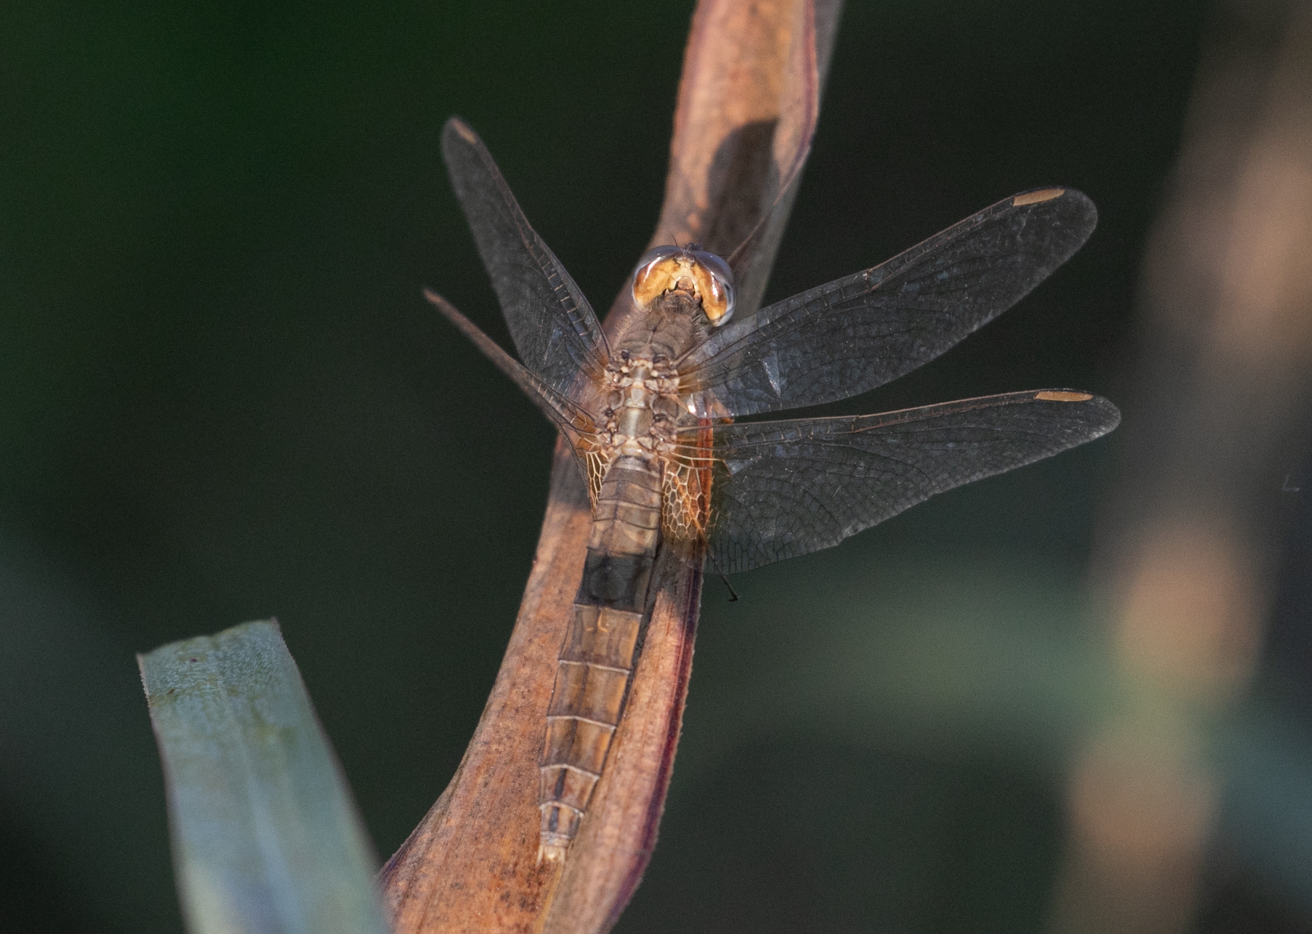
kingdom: Animalia
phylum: Arthropoda
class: Insecta
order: Odonata
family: Libellulidae
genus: Crocothemis
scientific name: Crocothemis erythraea
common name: Scarlet dragonfly
